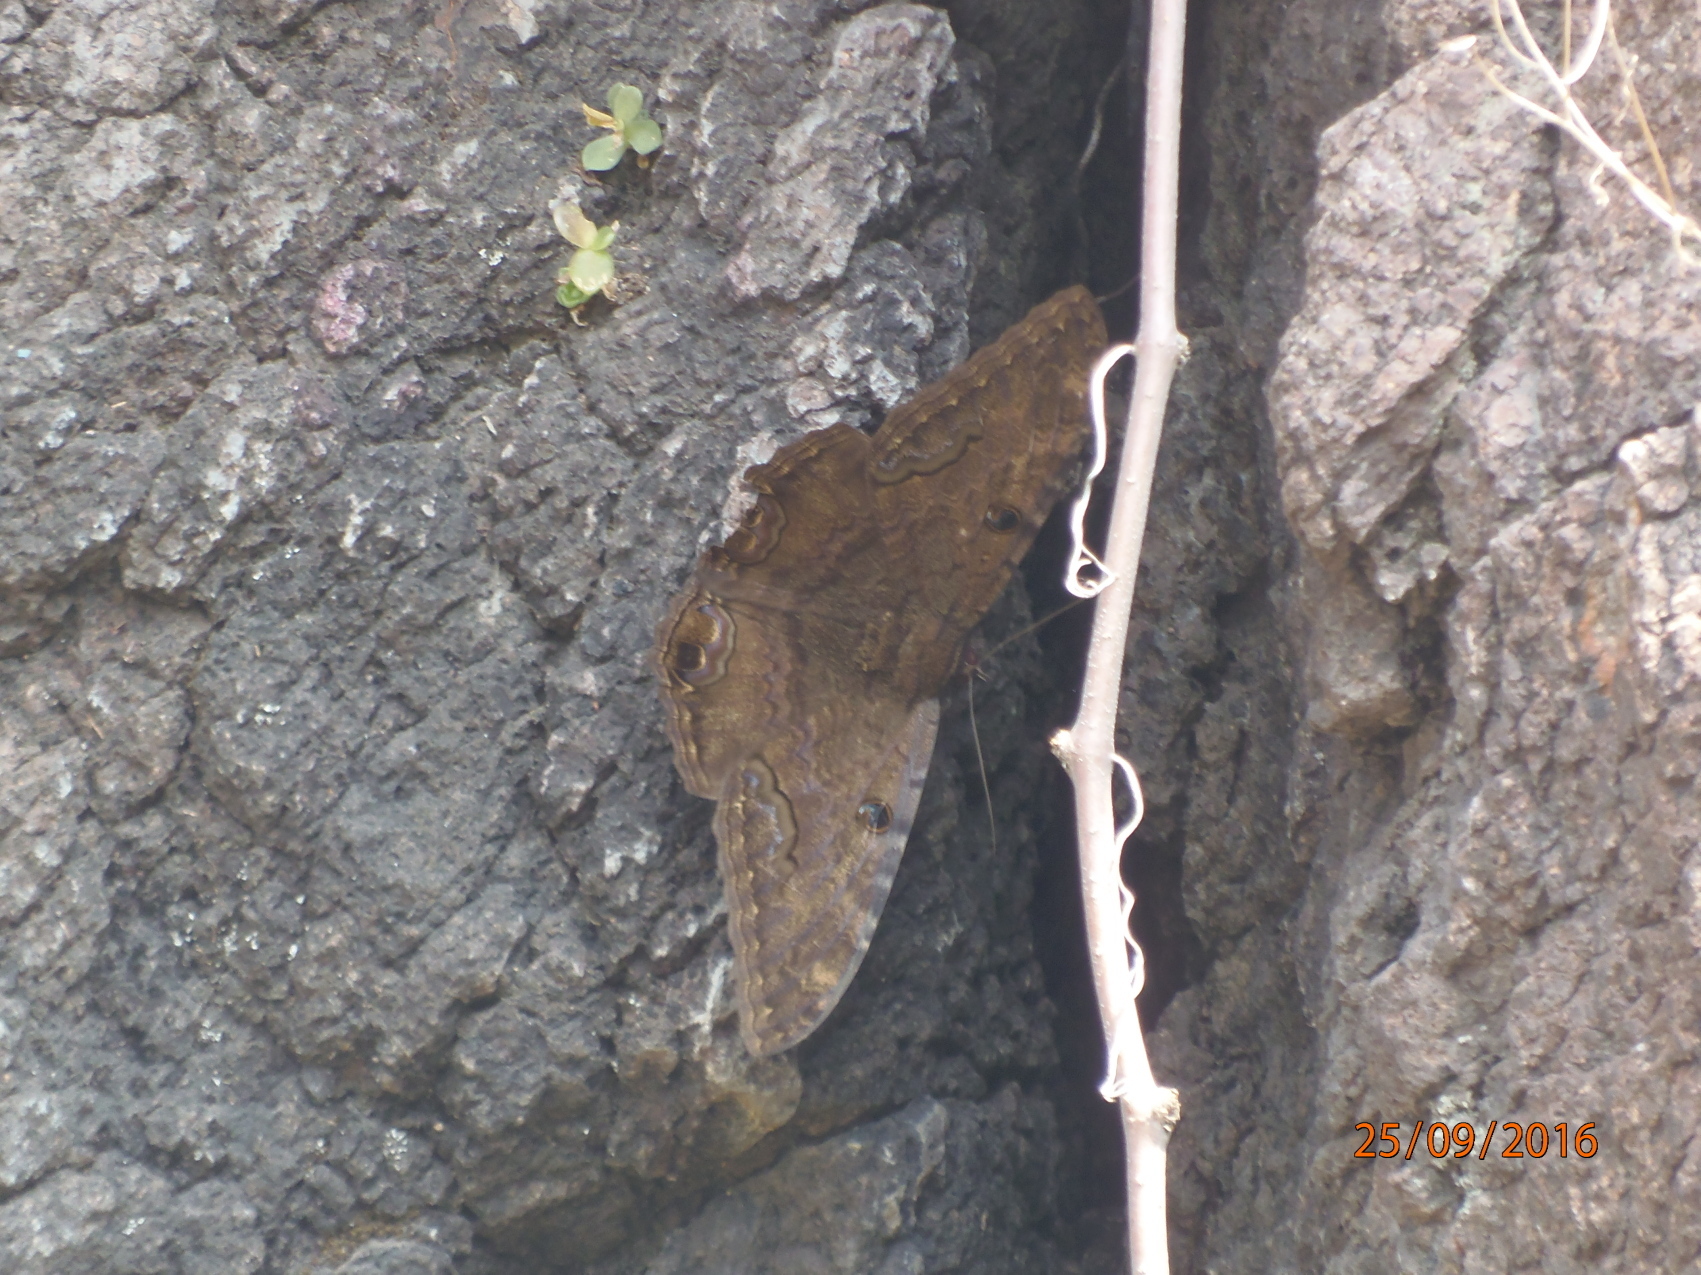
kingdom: Animalia
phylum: Arthropoda
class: Insecta
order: Lepidoptera
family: Erebidae
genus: Ascalapha
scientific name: Ascalapha odorata
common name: Black witch
